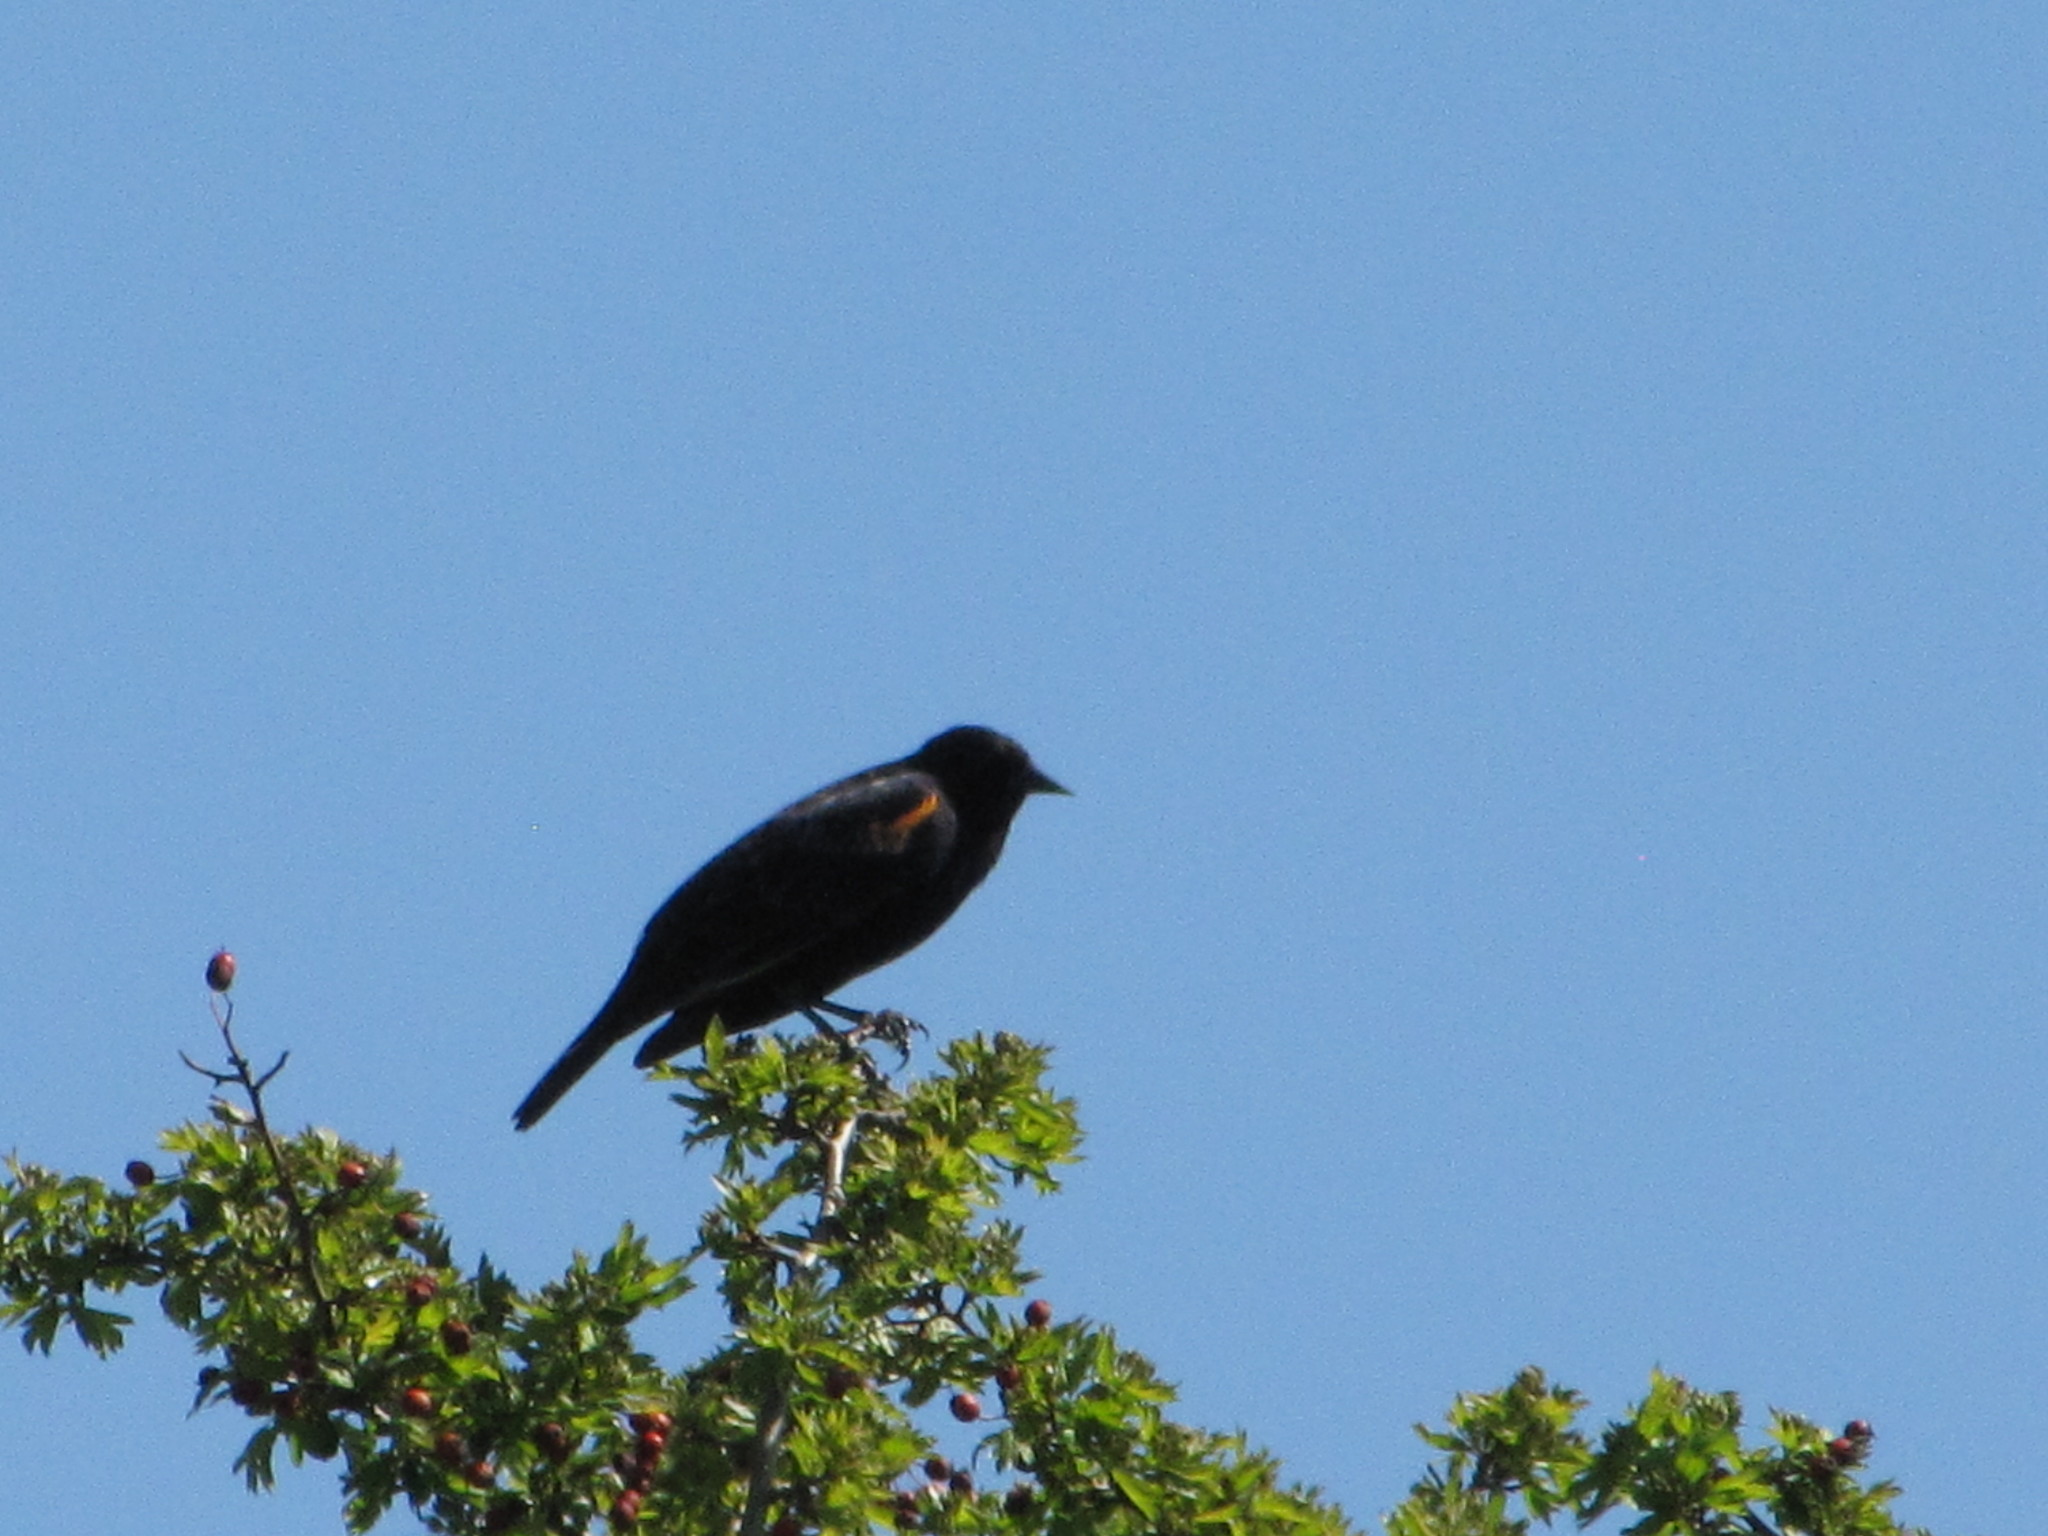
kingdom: Animalia
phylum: Chordata
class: Aves
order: Passeriformes
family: Icteridae
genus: Agelaius
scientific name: Agelaius phoeniceus
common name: Red-winged blackbird
